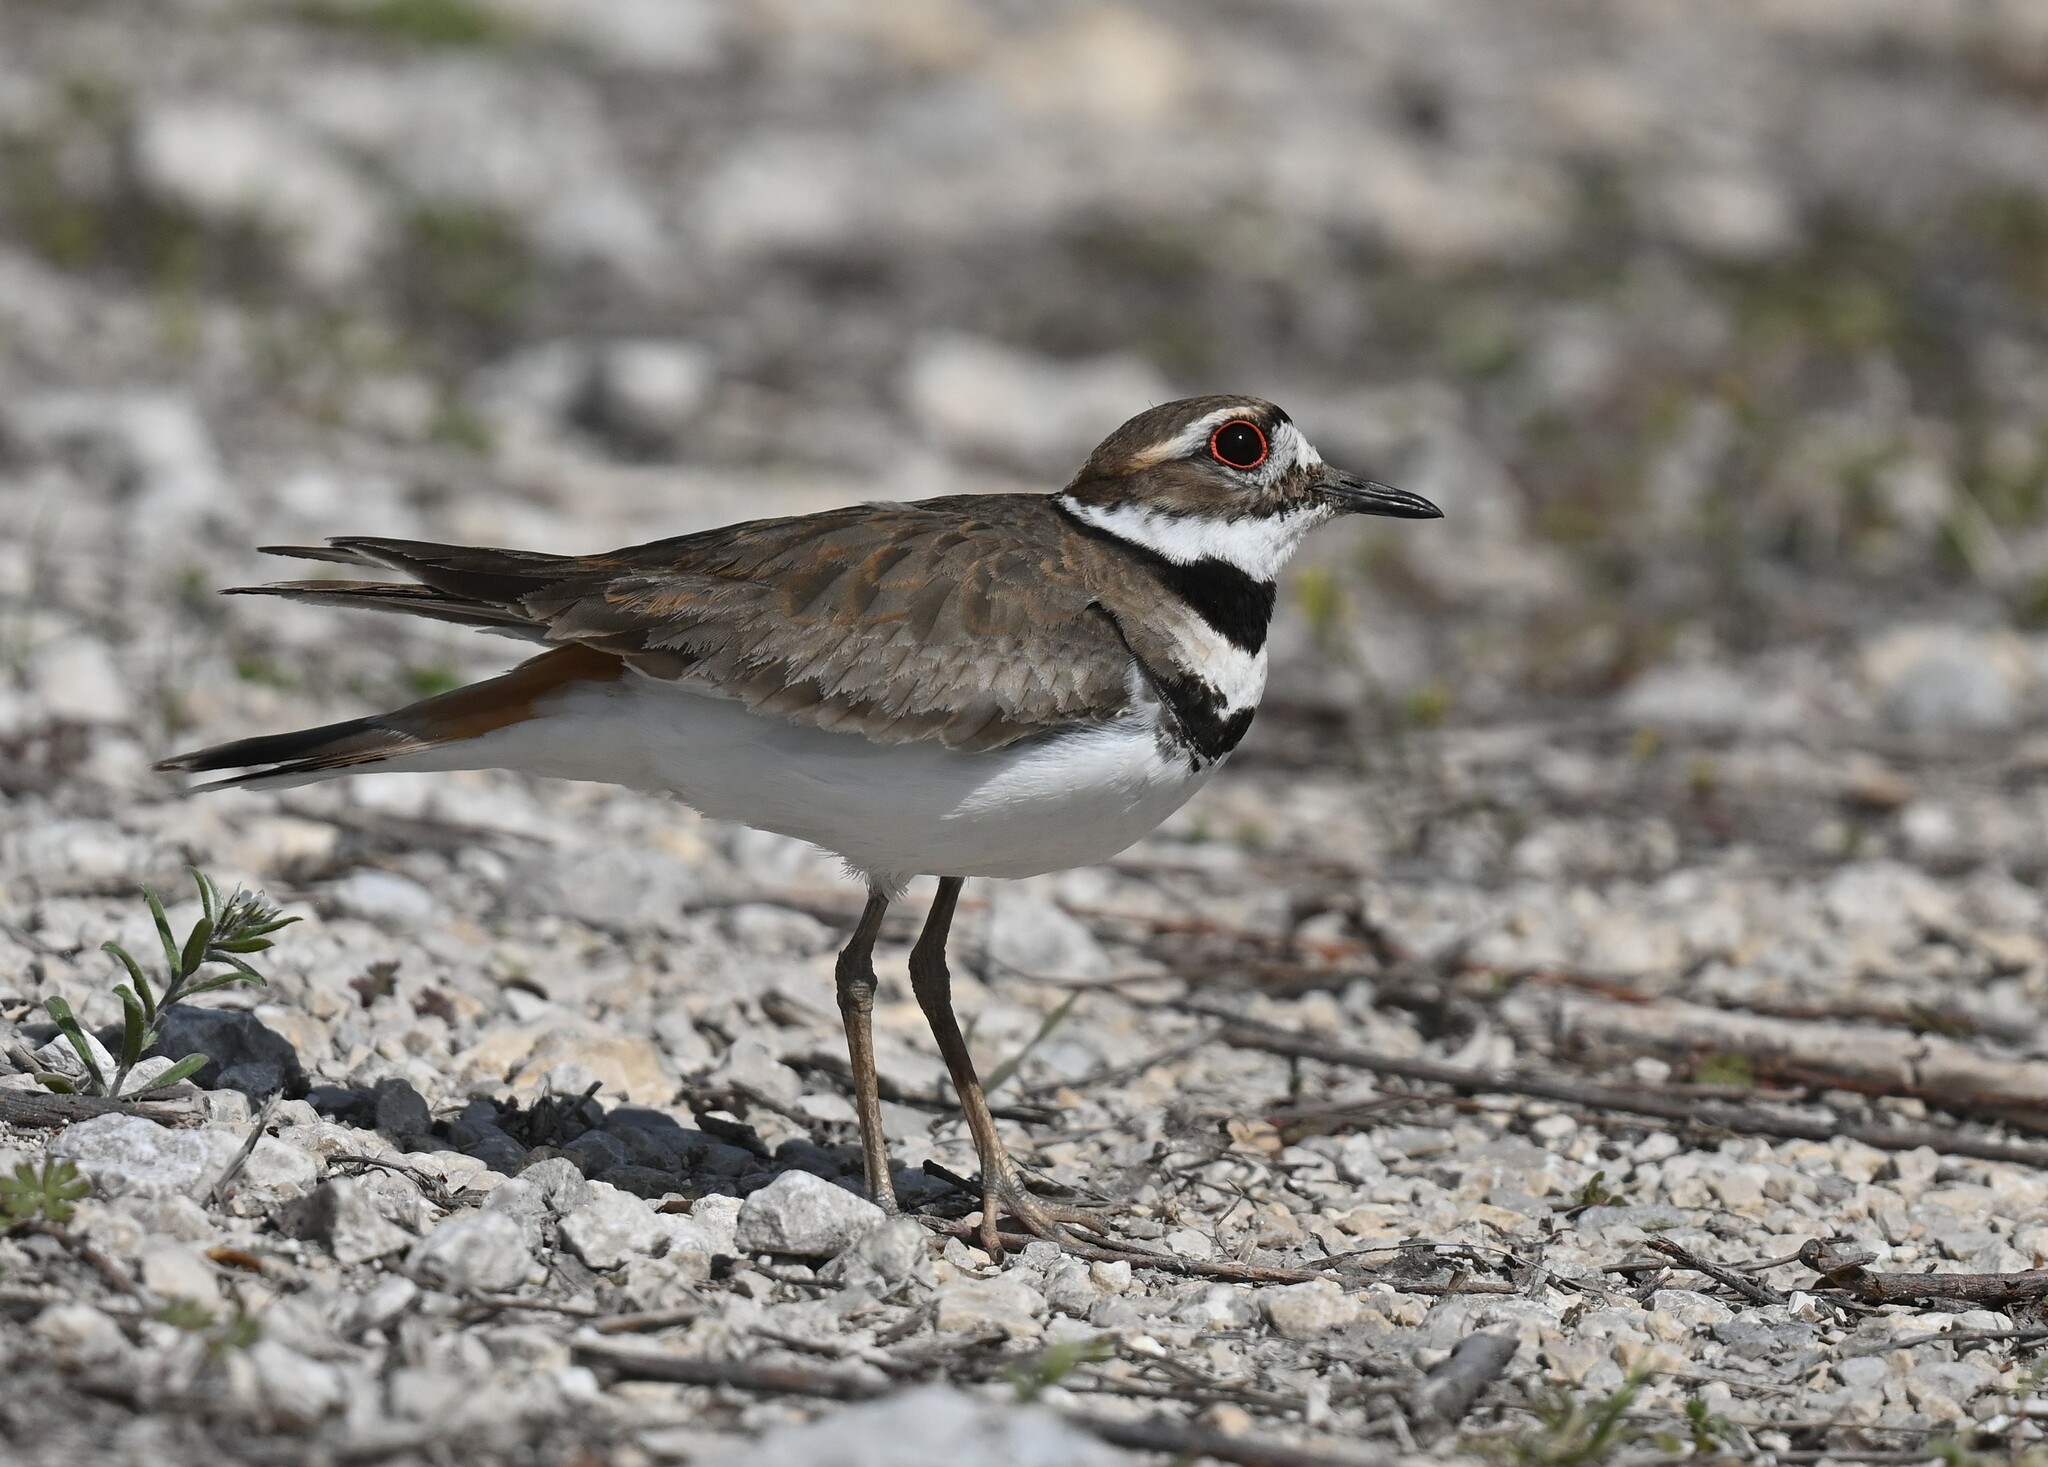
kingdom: Animalia
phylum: Chordata
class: Aves
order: Charadriiformes
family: Charadriidae
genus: Charadrius
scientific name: Charadrius vociferus
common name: Killdeer
